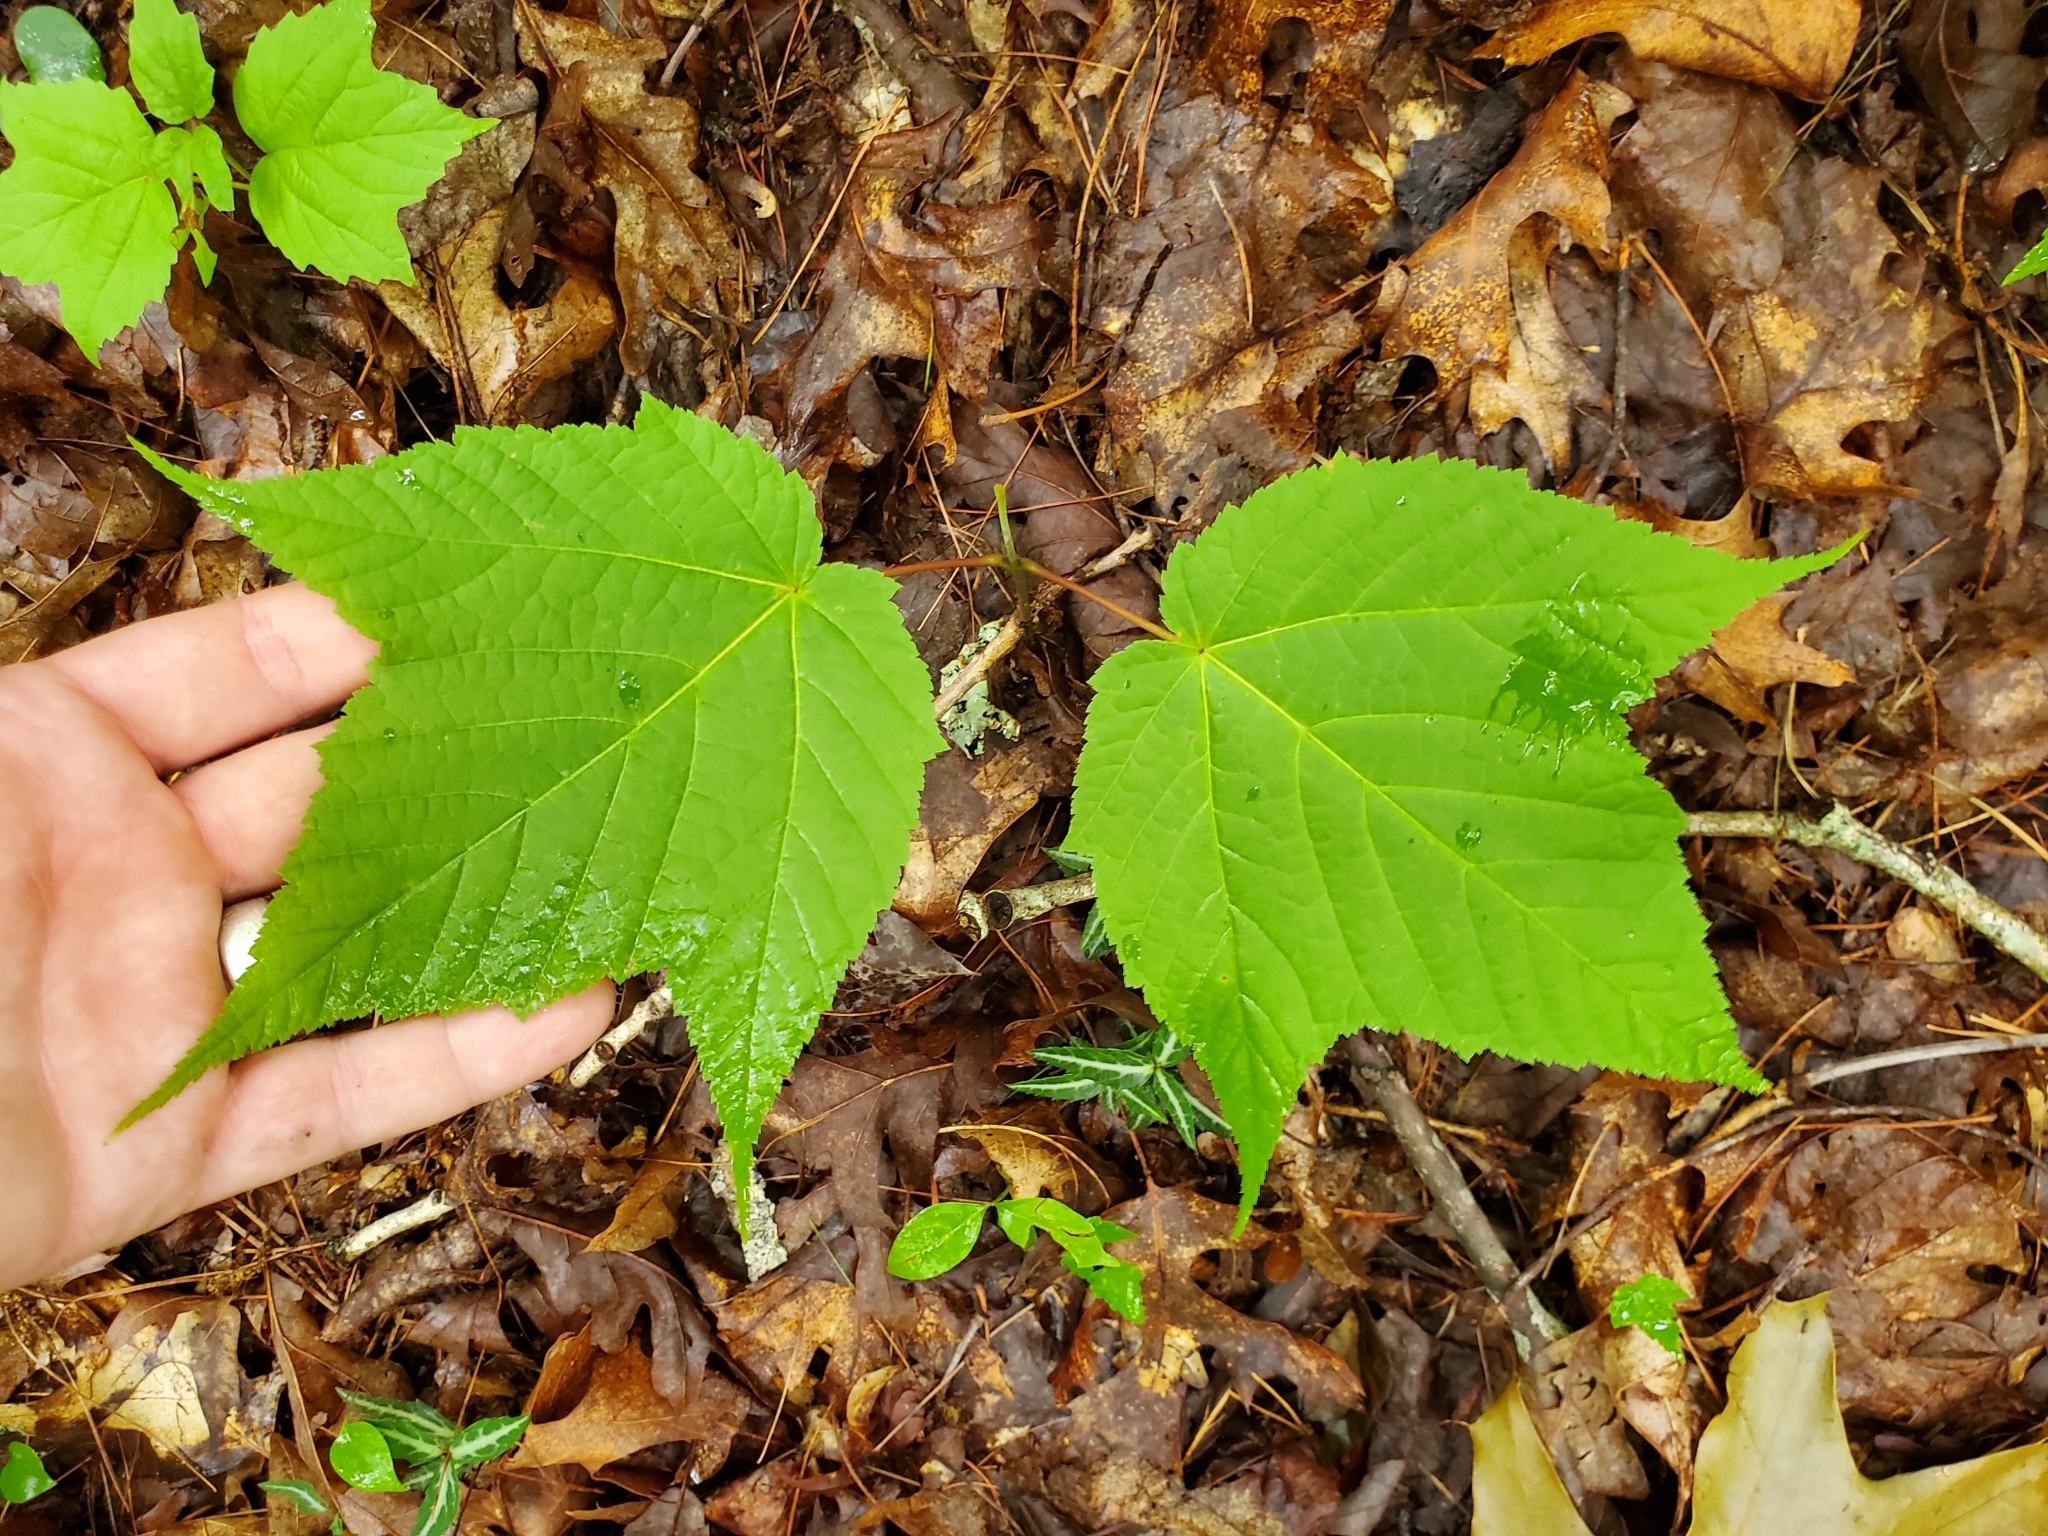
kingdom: Plantae
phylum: Tracheophyta
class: Magnoliopsida
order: Sapindales
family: Sapindaceae
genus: Acer
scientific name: Acer pensylvanicum
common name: Moosewood
